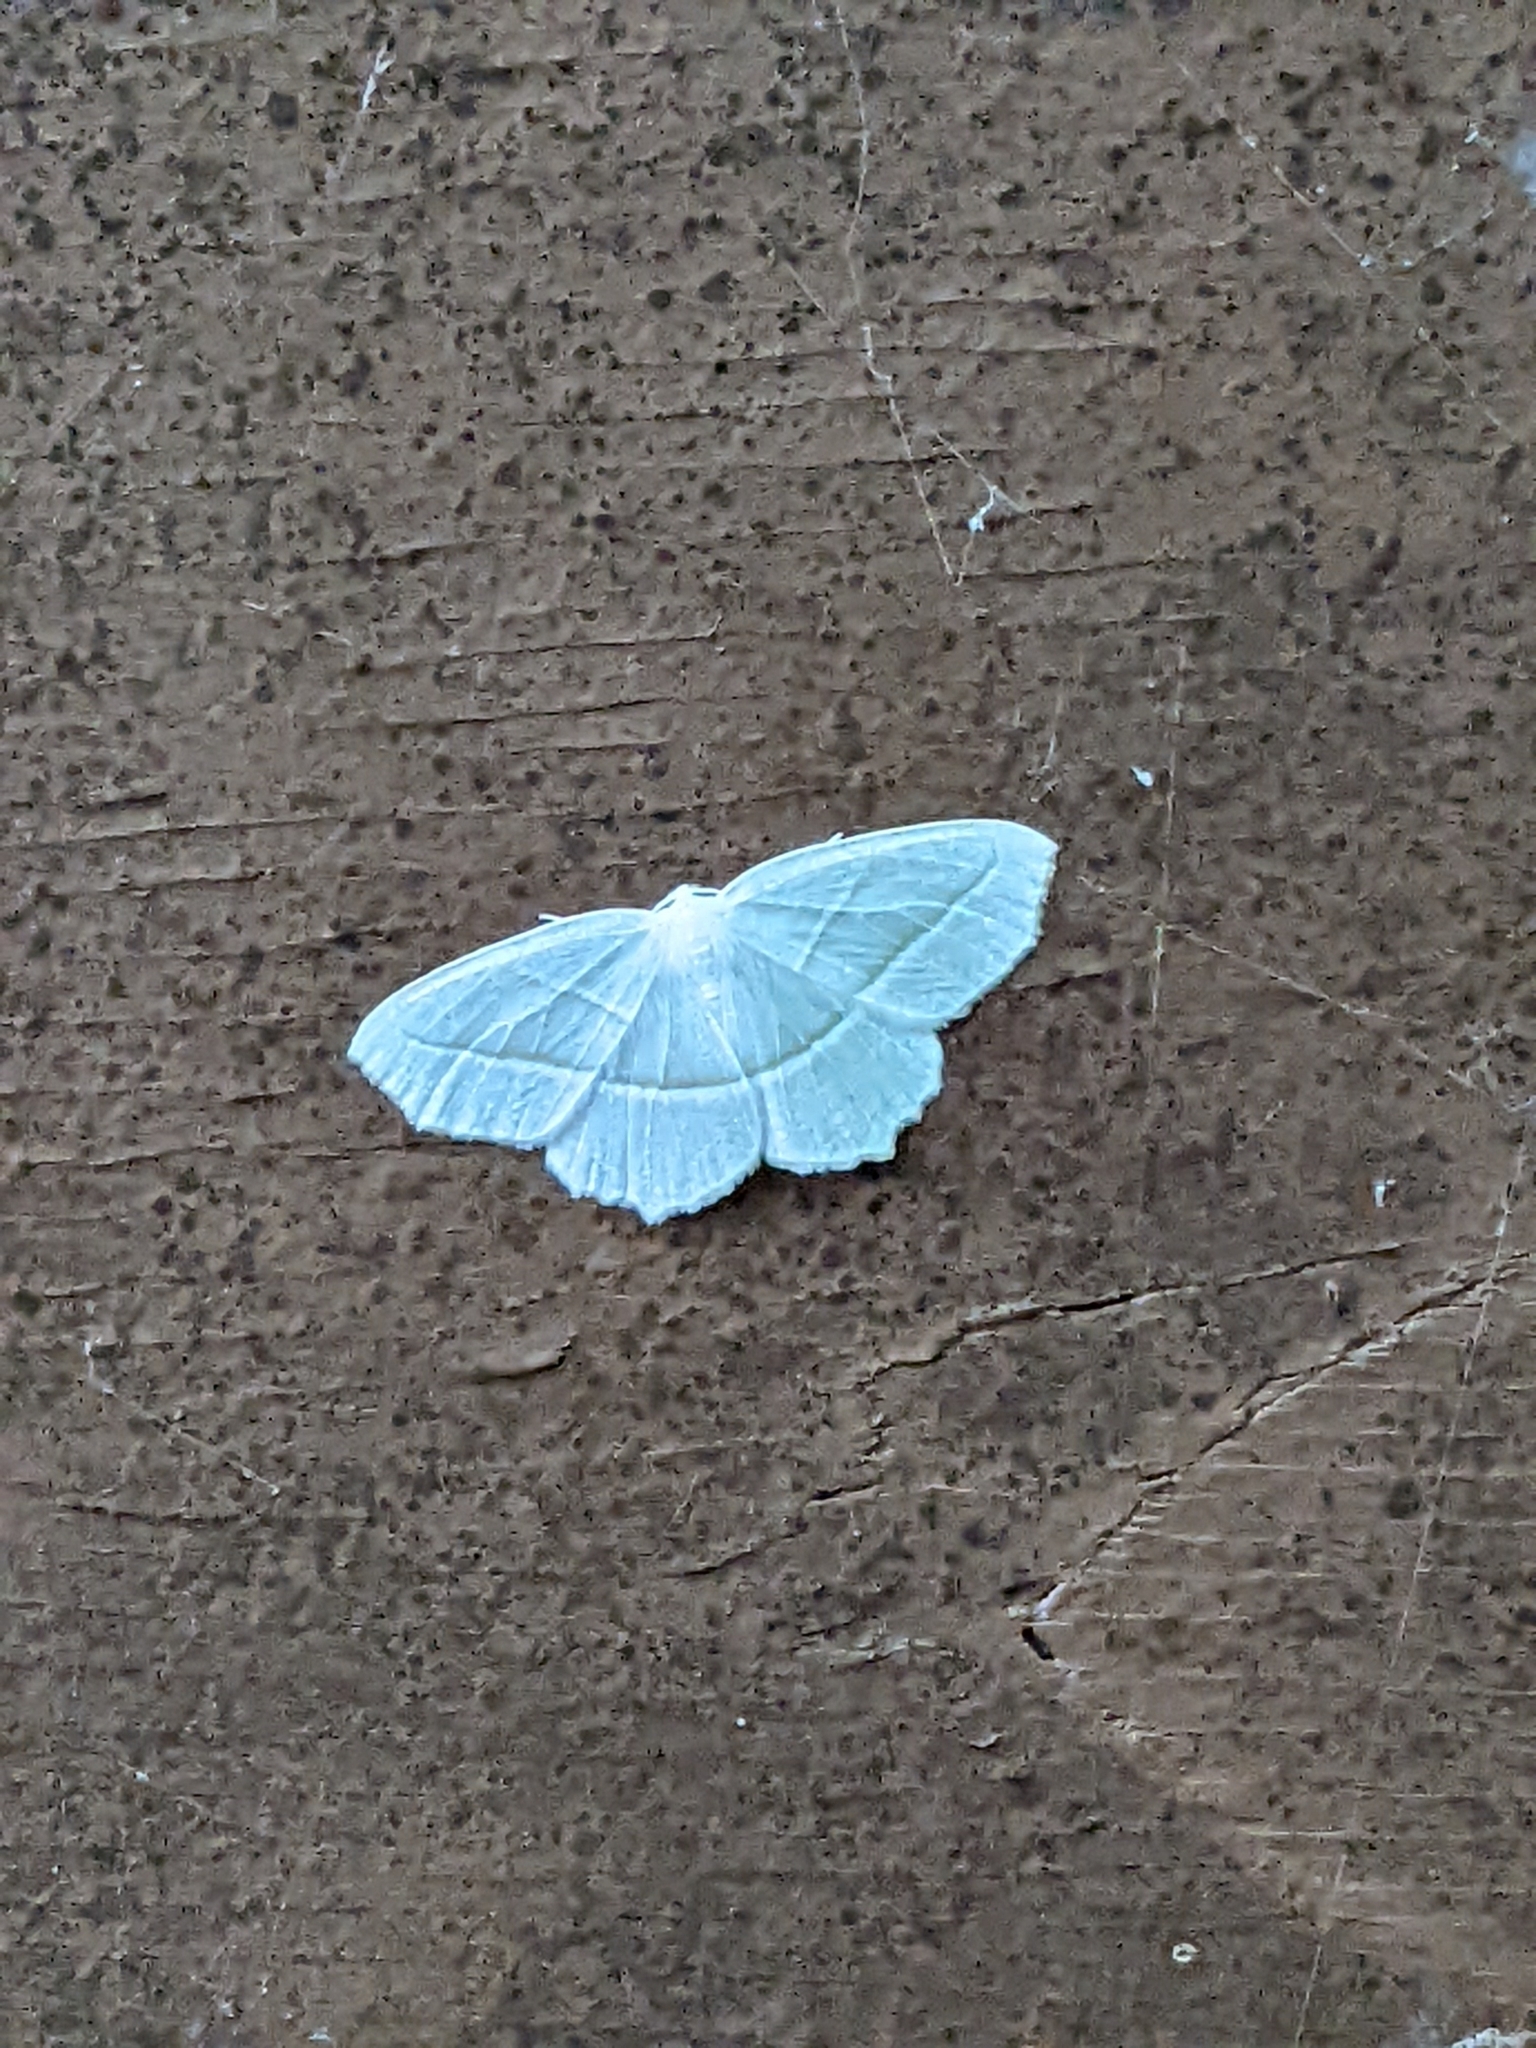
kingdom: Animalia
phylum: Arthropoda
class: Insecta
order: Lepidoptera
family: Geometridae
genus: Campaea
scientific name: Campaea perlata
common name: Fringed looper
